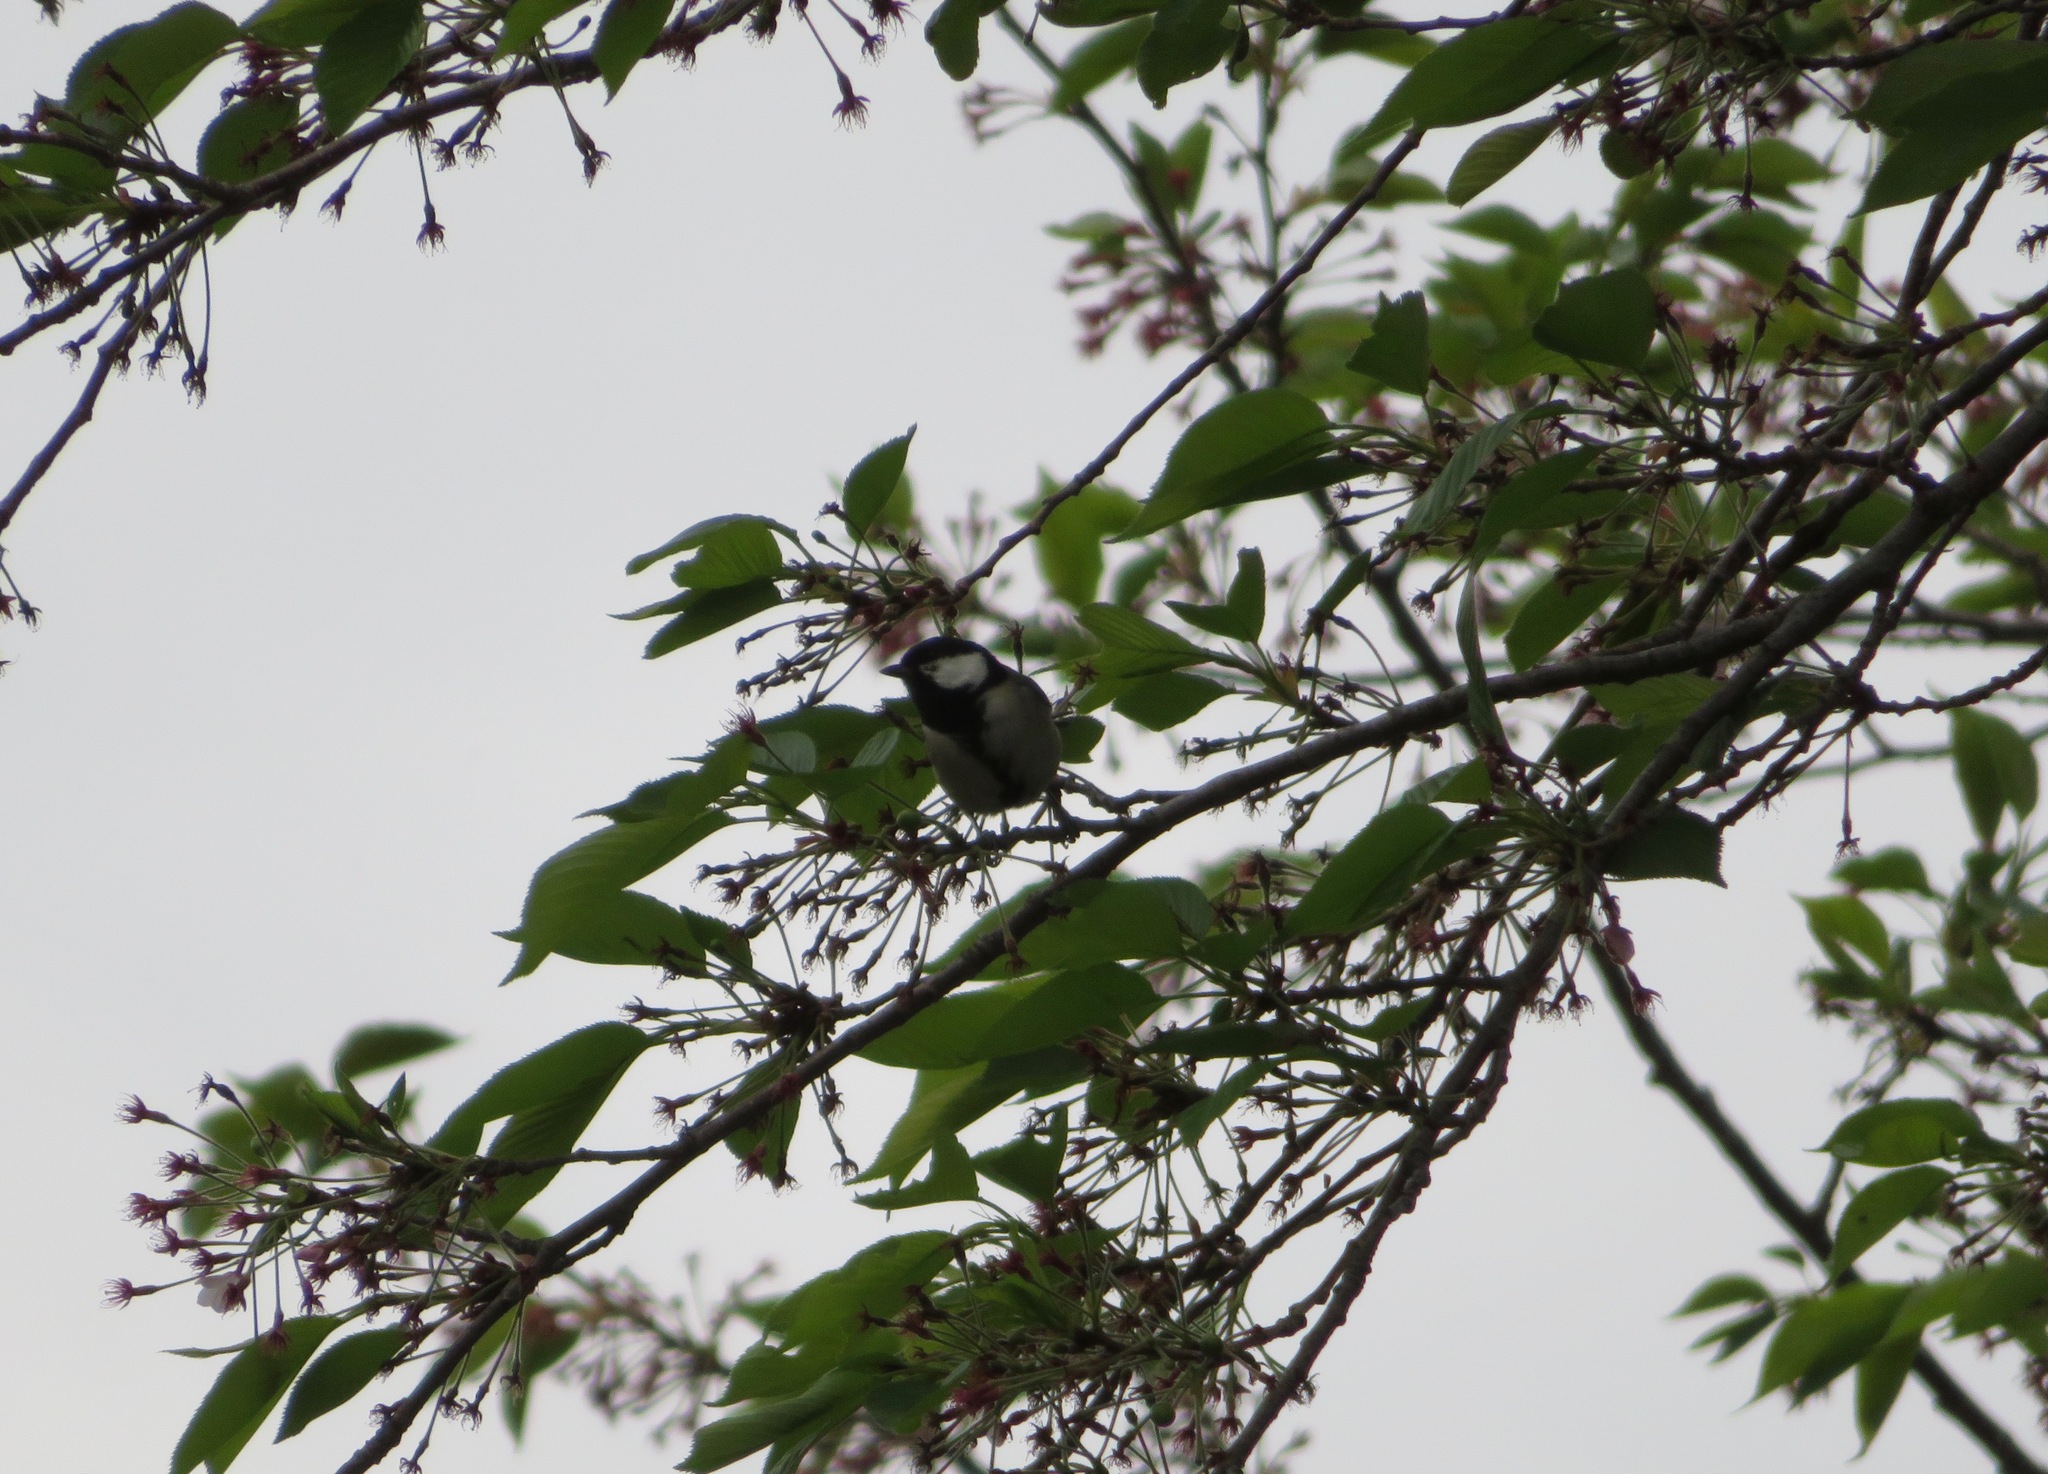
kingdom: Animalia
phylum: Chordata
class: Aves
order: Passeriformes
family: Paridae
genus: Parus
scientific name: Parus minor
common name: Japanese tit
